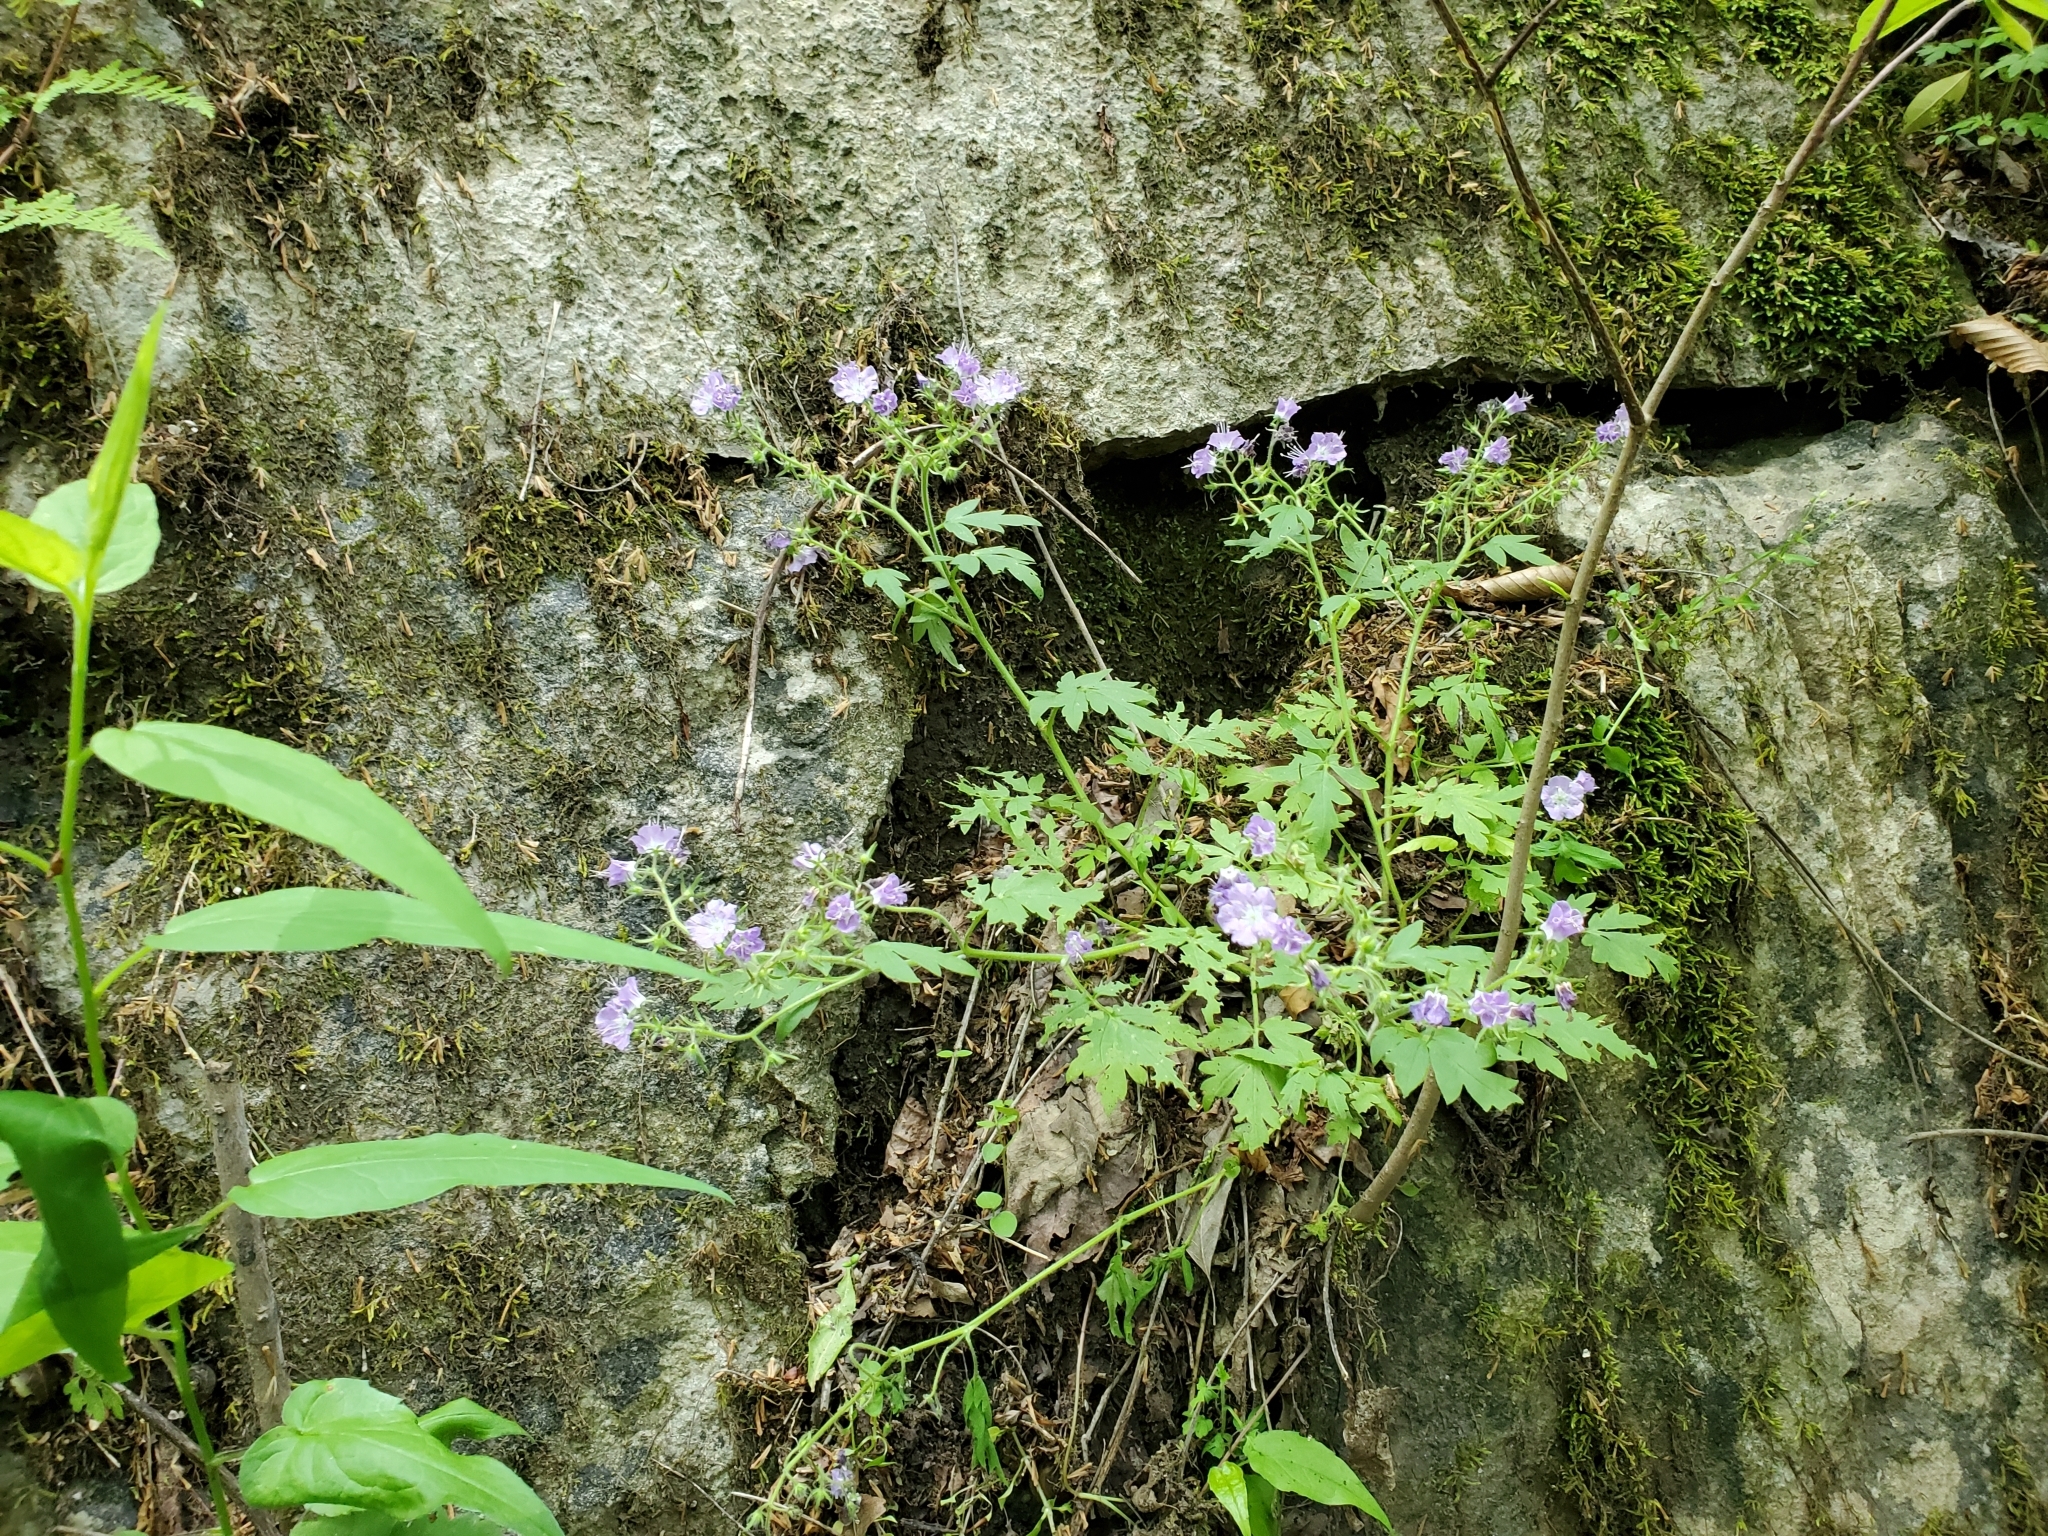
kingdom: Plantae
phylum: Tracheophyta
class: Magnoliopsida
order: Boraginales
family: Hydrophyllaceae
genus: Phacelia
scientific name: Phacelia bipinnatifida
